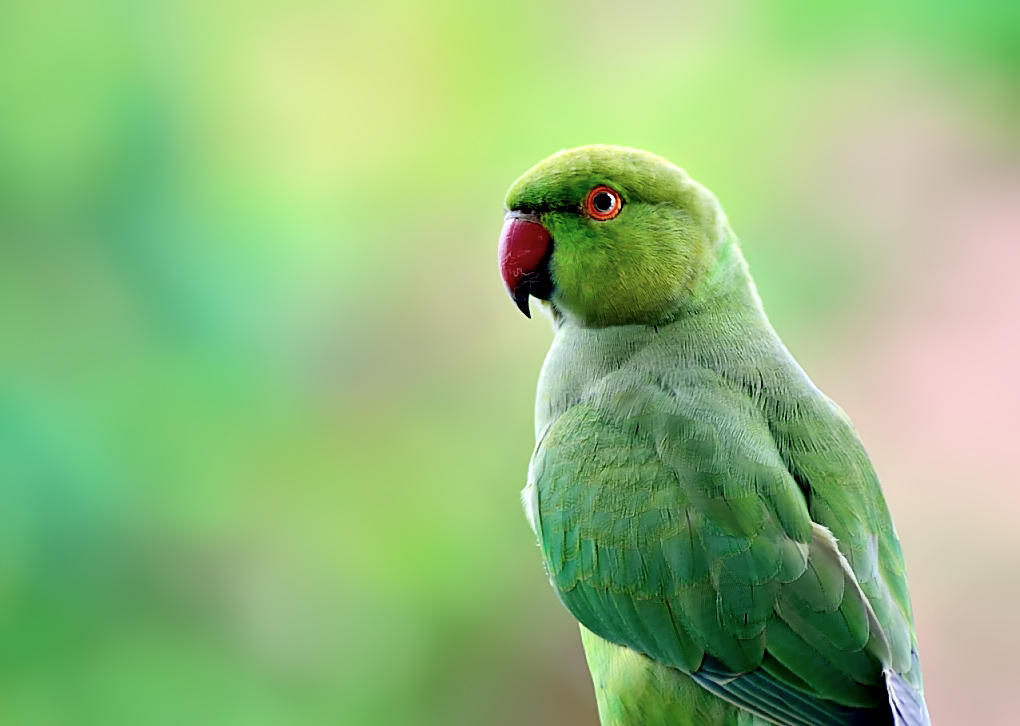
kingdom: Animalia
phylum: Chordata
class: Aves
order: Psittaciformes
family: Psittacidae
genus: Psittacula
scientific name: Psittacula krameri
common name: Rose-ringed parakeet
